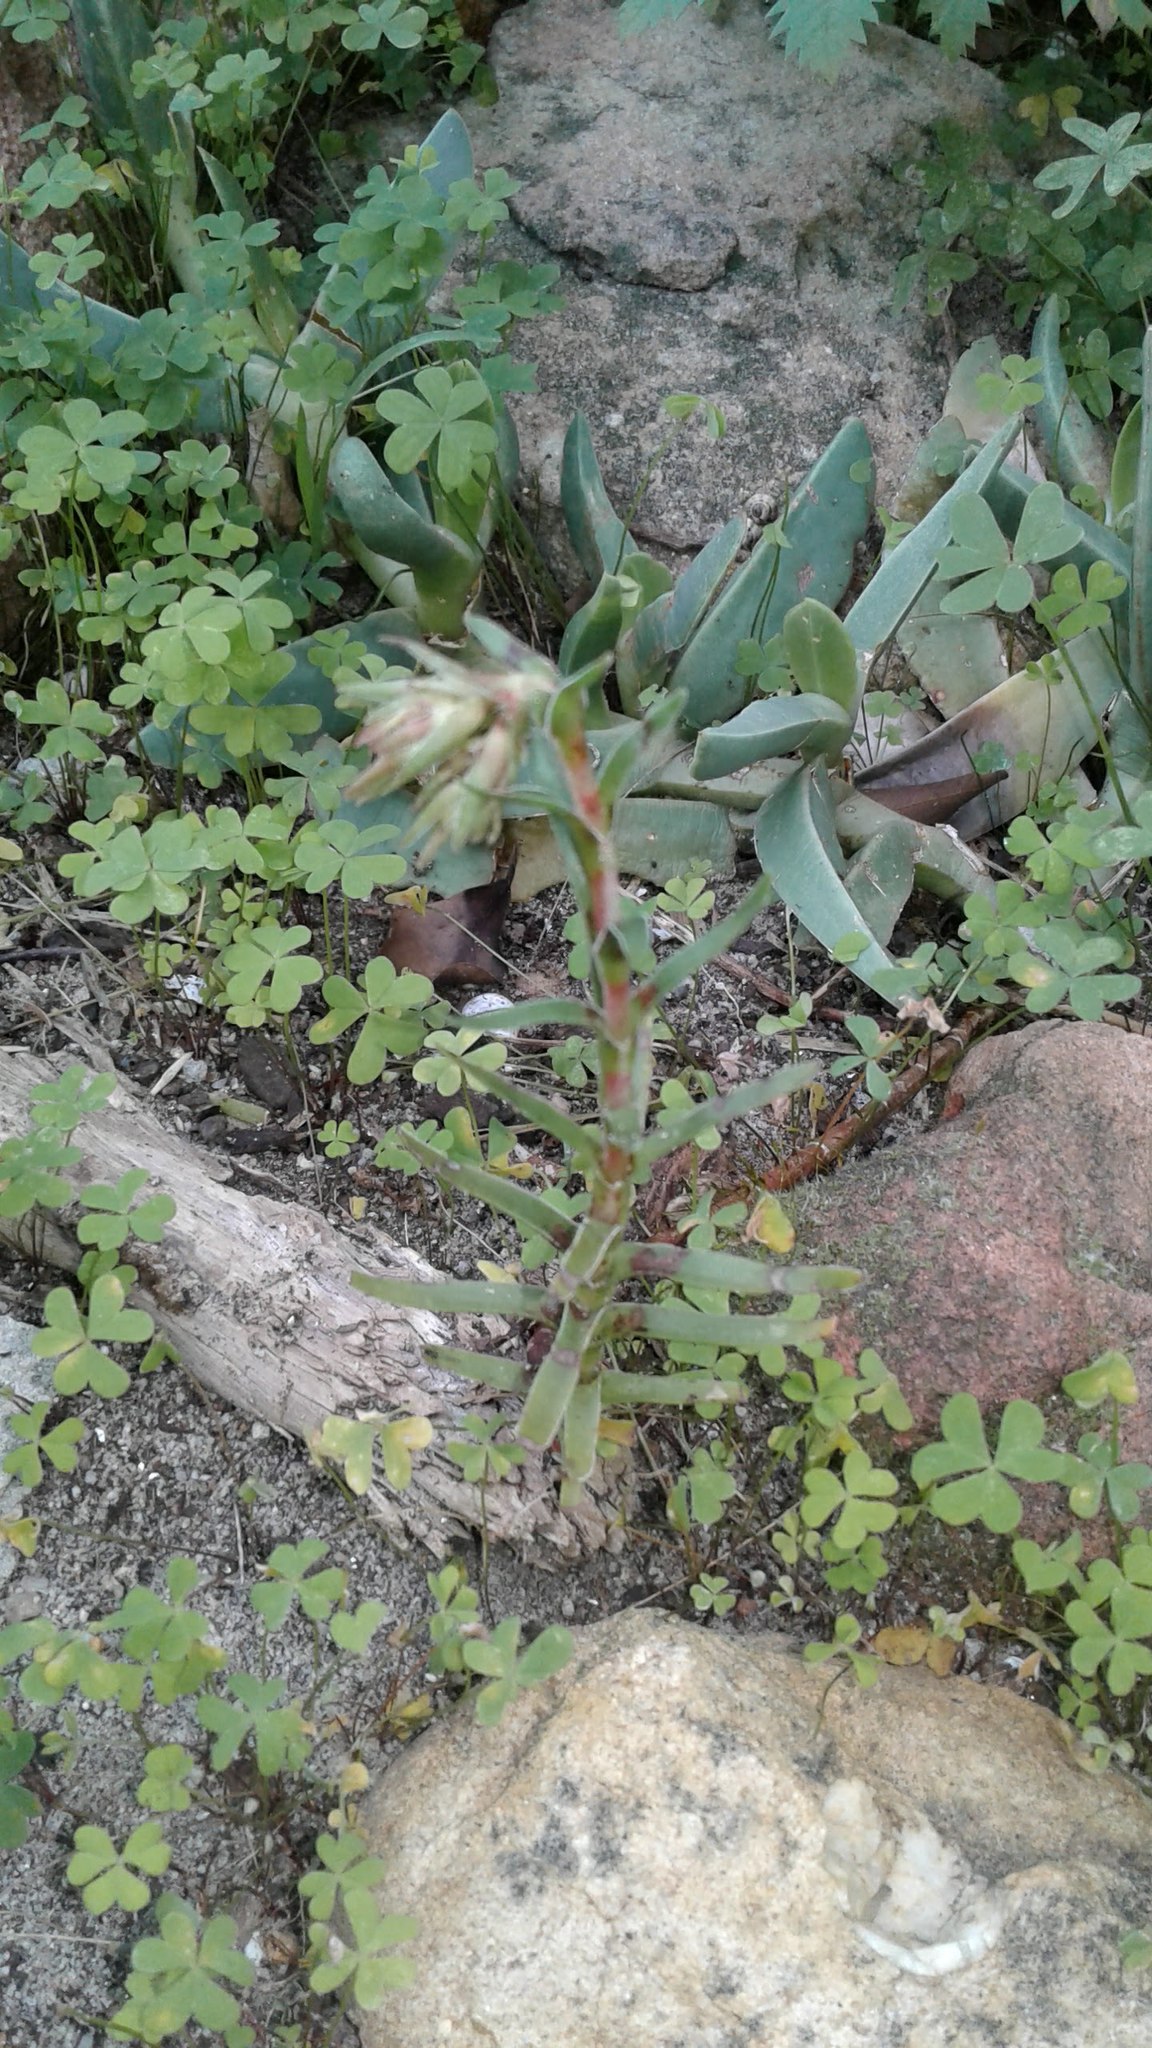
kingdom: Plantae
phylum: Tracheophyta
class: Magnoliopsida
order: Saxifragales
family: Crassulaceae
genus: Crassula
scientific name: Crassula fascicularis
